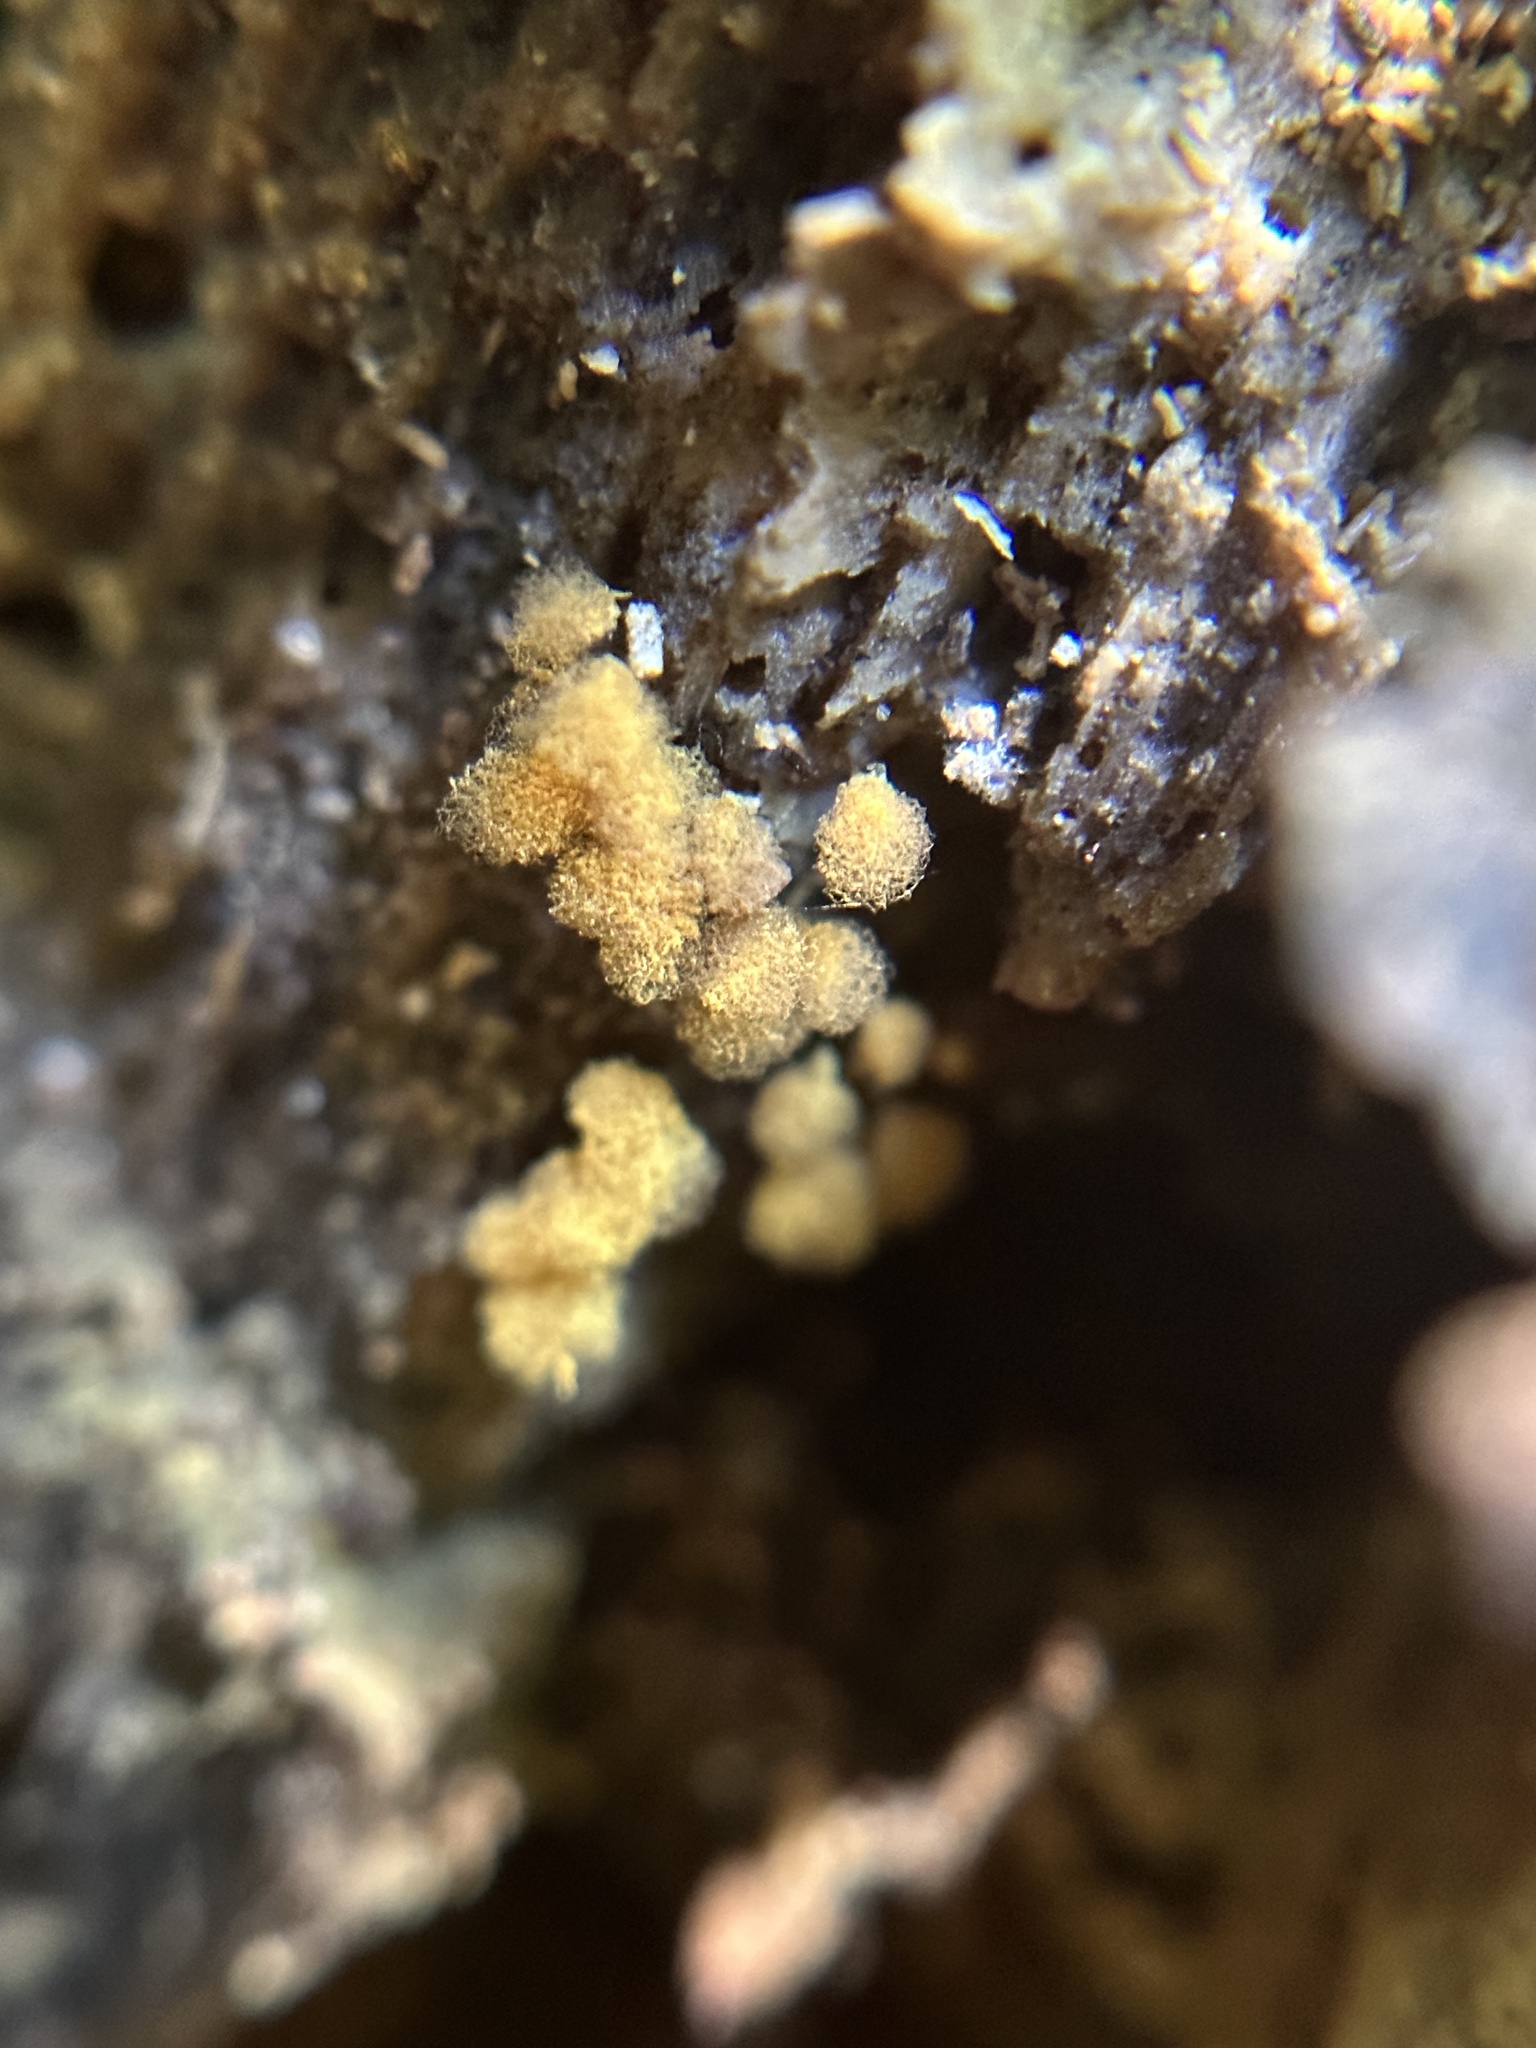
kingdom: Protozoa
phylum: Mycetozoa
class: Myxomycetes
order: Trichiales
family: Arcyriaceae
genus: Hemitrichia
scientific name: Hemitrichia calyculata
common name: Push pin slime mold
